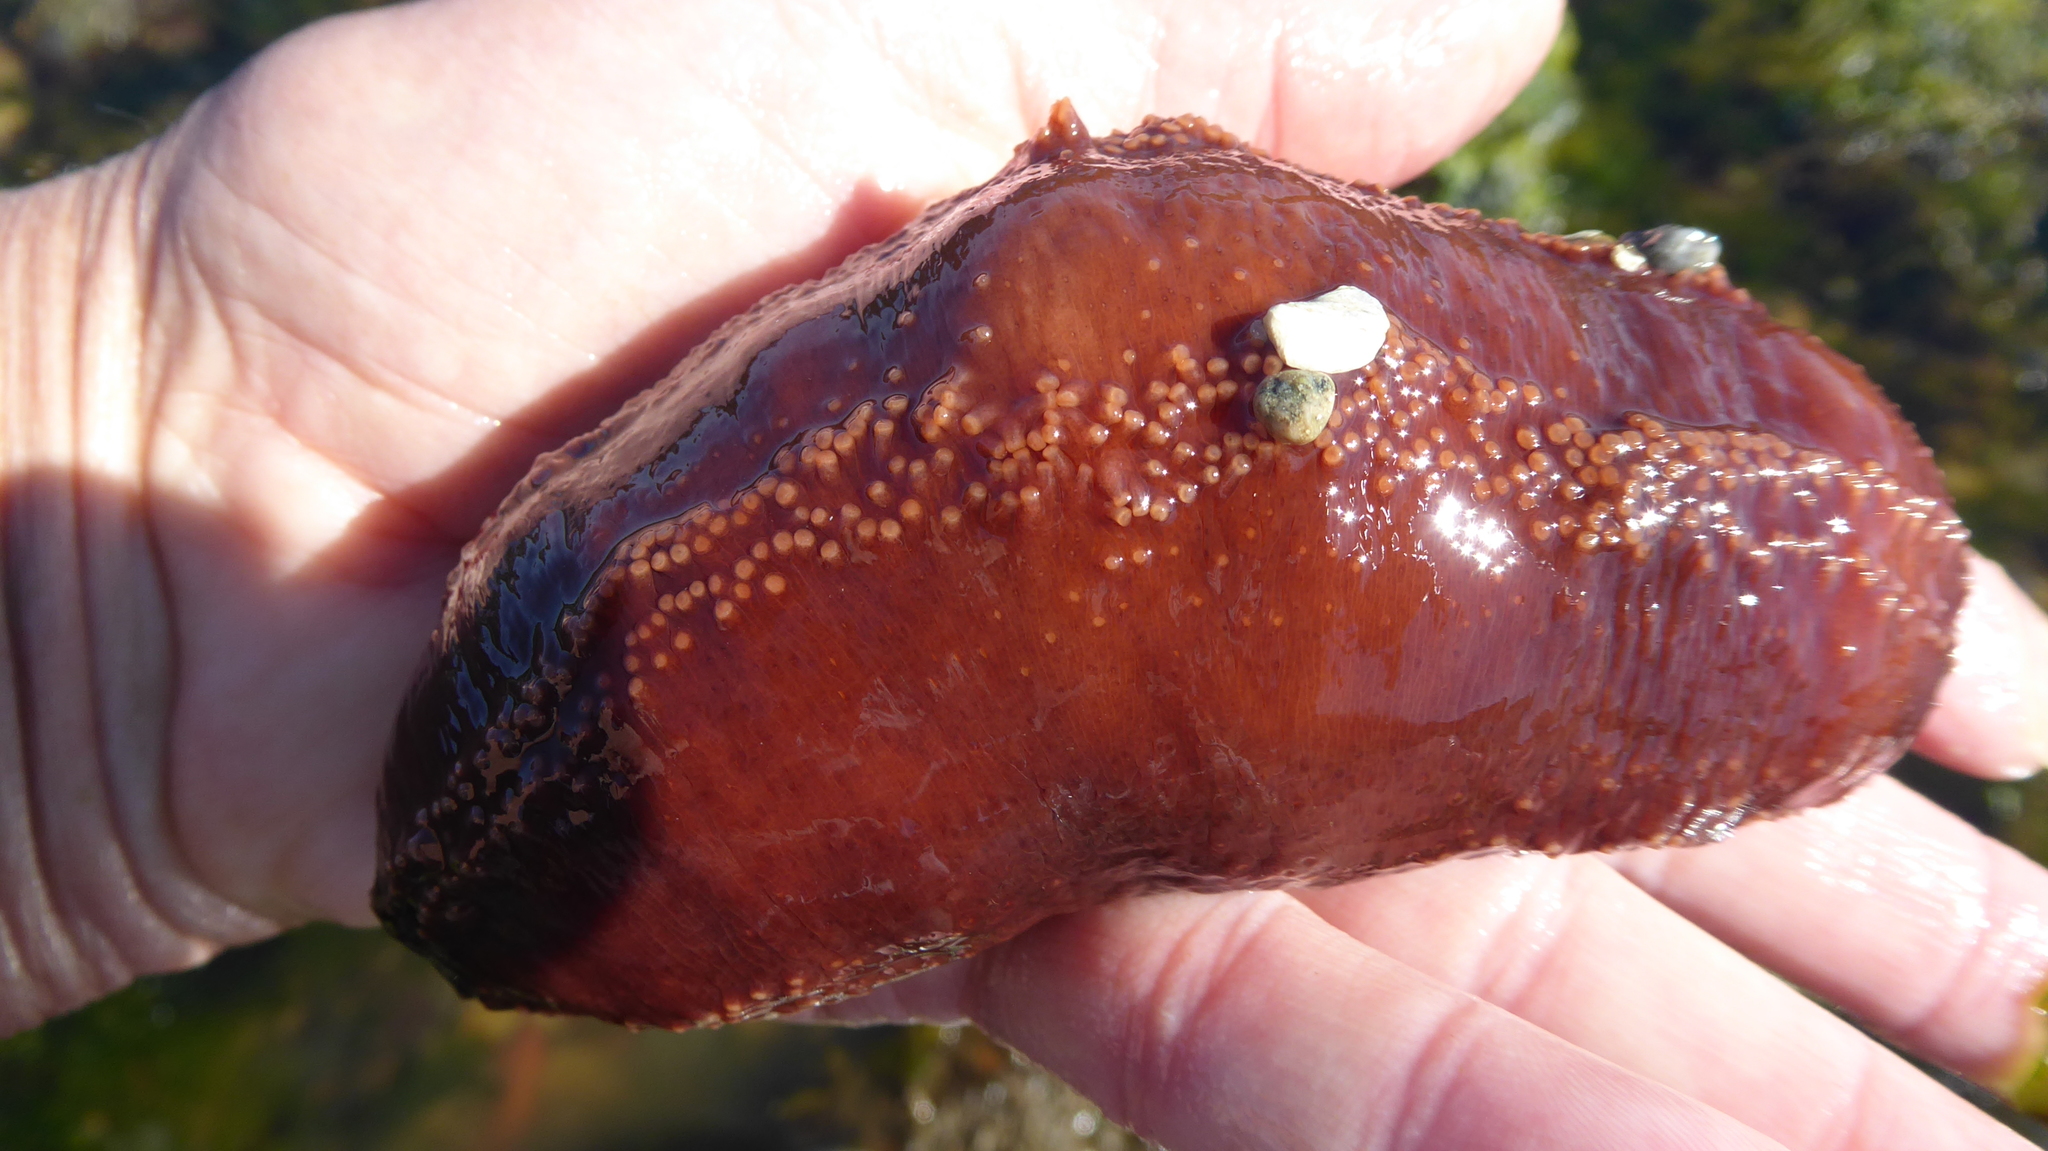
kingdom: Animalia
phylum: Echinodermata
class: Holothuroidea
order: Dendrochirotida
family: Cucumariidae
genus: Cucumaria
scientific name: Cucumaria miniata
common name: Orange sea cucumber
